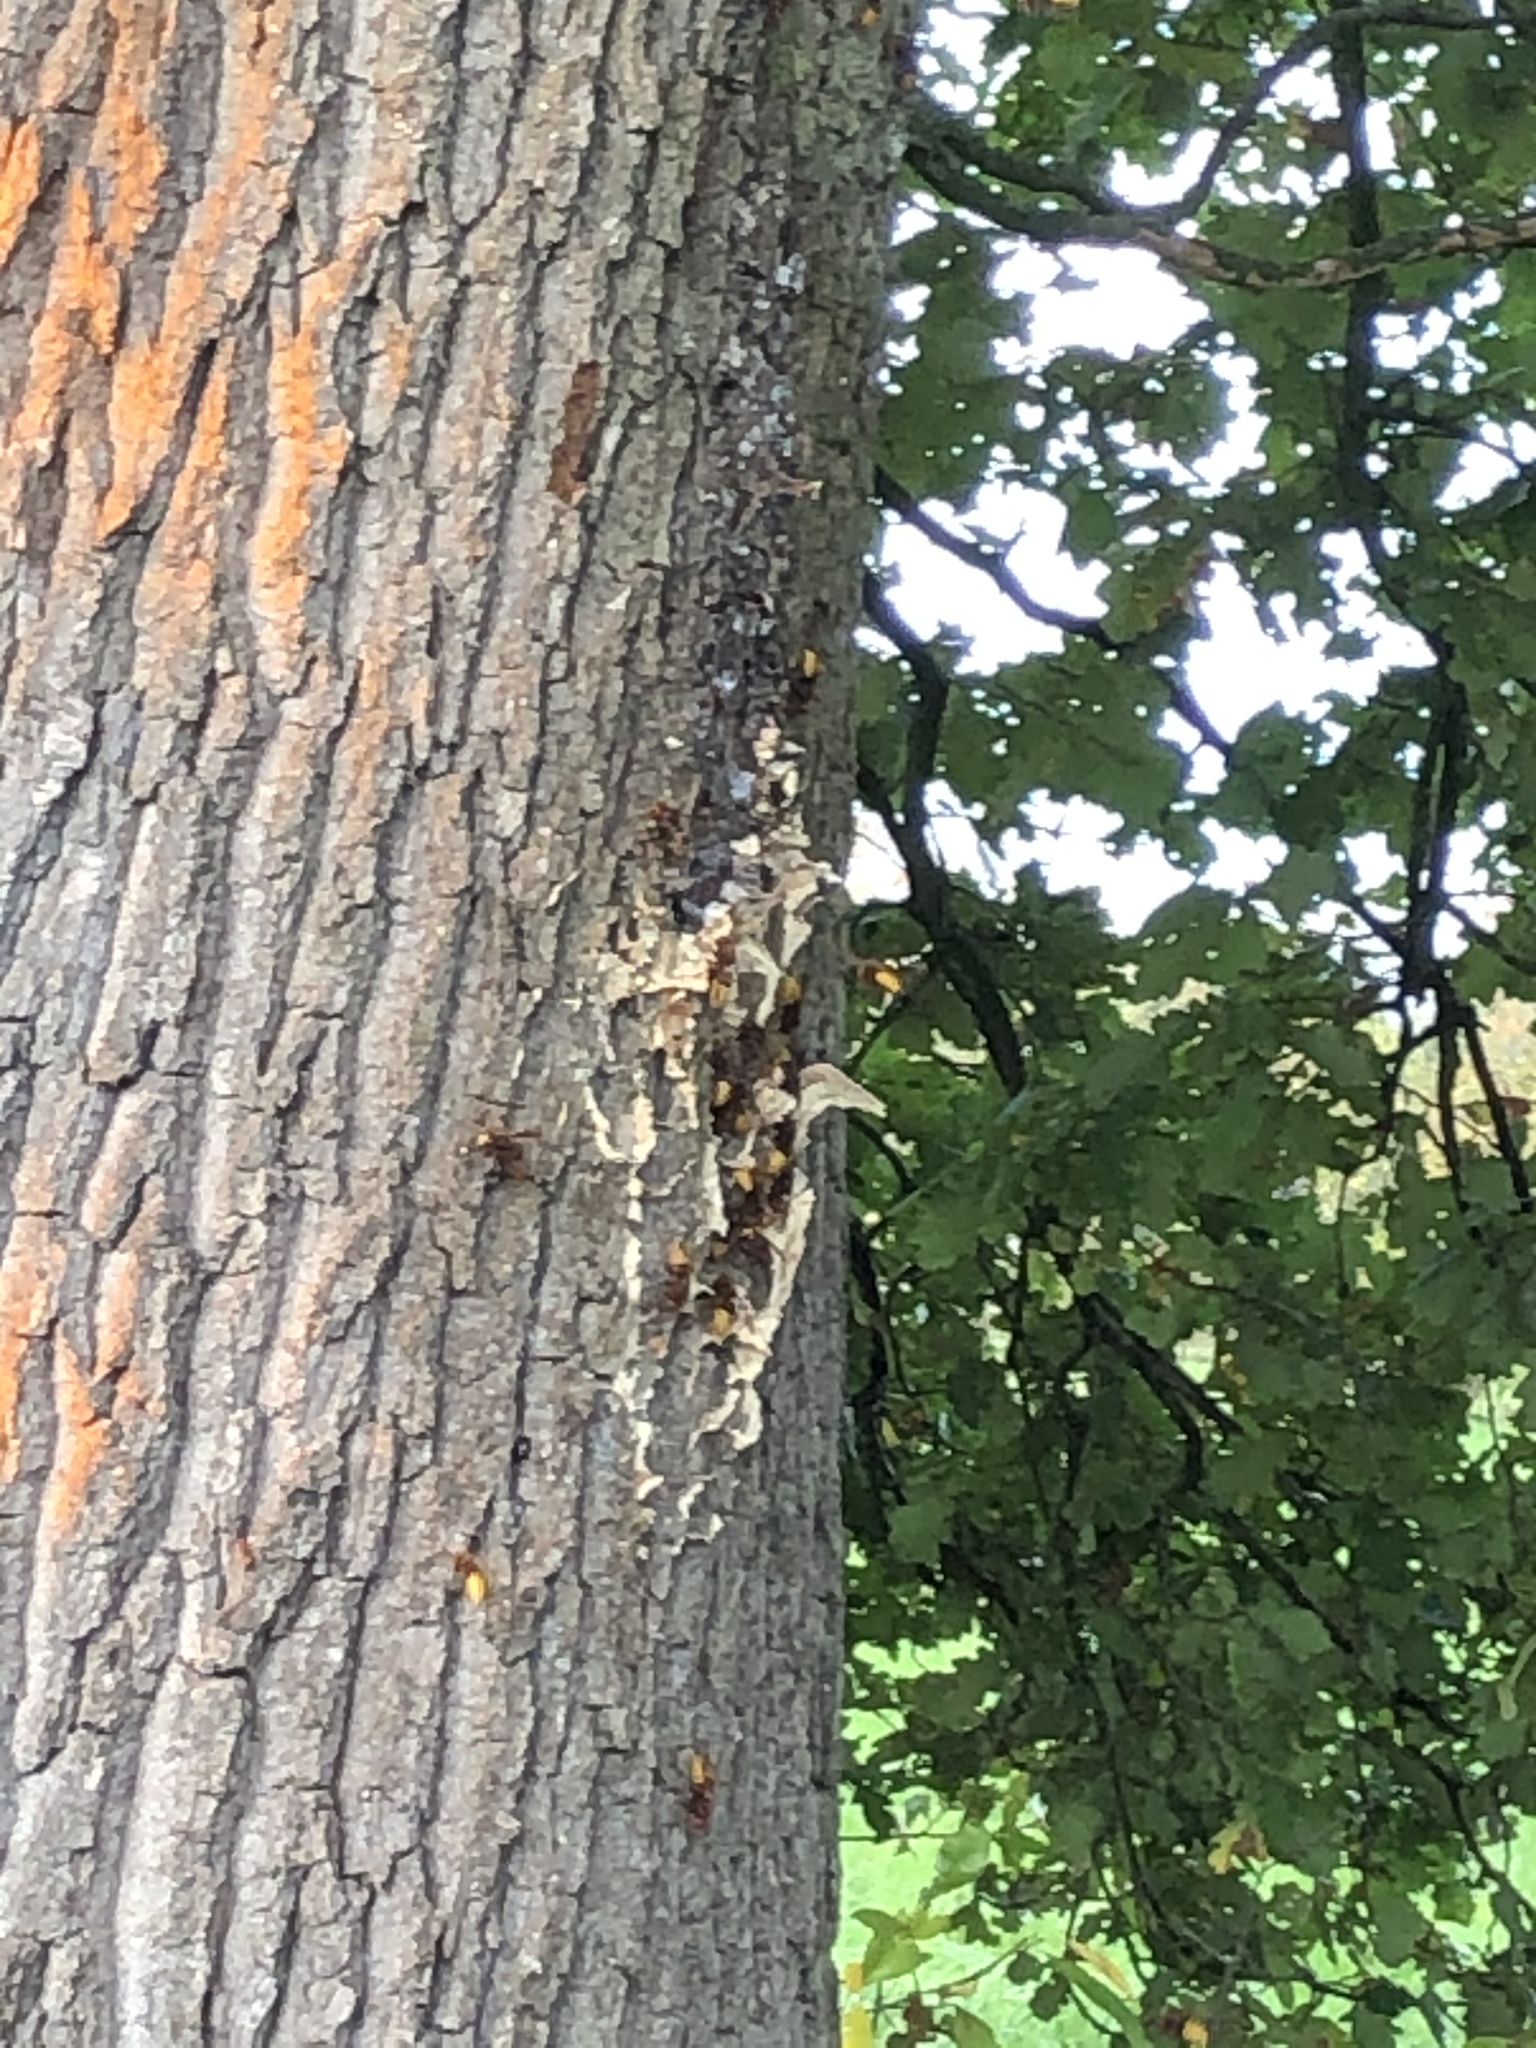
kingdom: Animalia
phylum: Arthropoda
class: Insecta
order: Hymenoptera
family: Vespidae
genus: Vespa
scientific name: Vespa crabro
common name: Hornet
